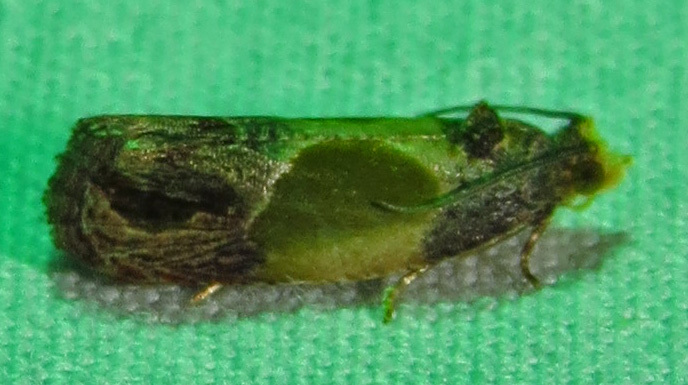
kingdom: Animalia
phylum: Arthropoda
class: Insecta
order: Lepidoptera
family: Tortricidae
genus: Eumarozia
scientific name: Eumarozia malachitana
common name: Sculptured moth
